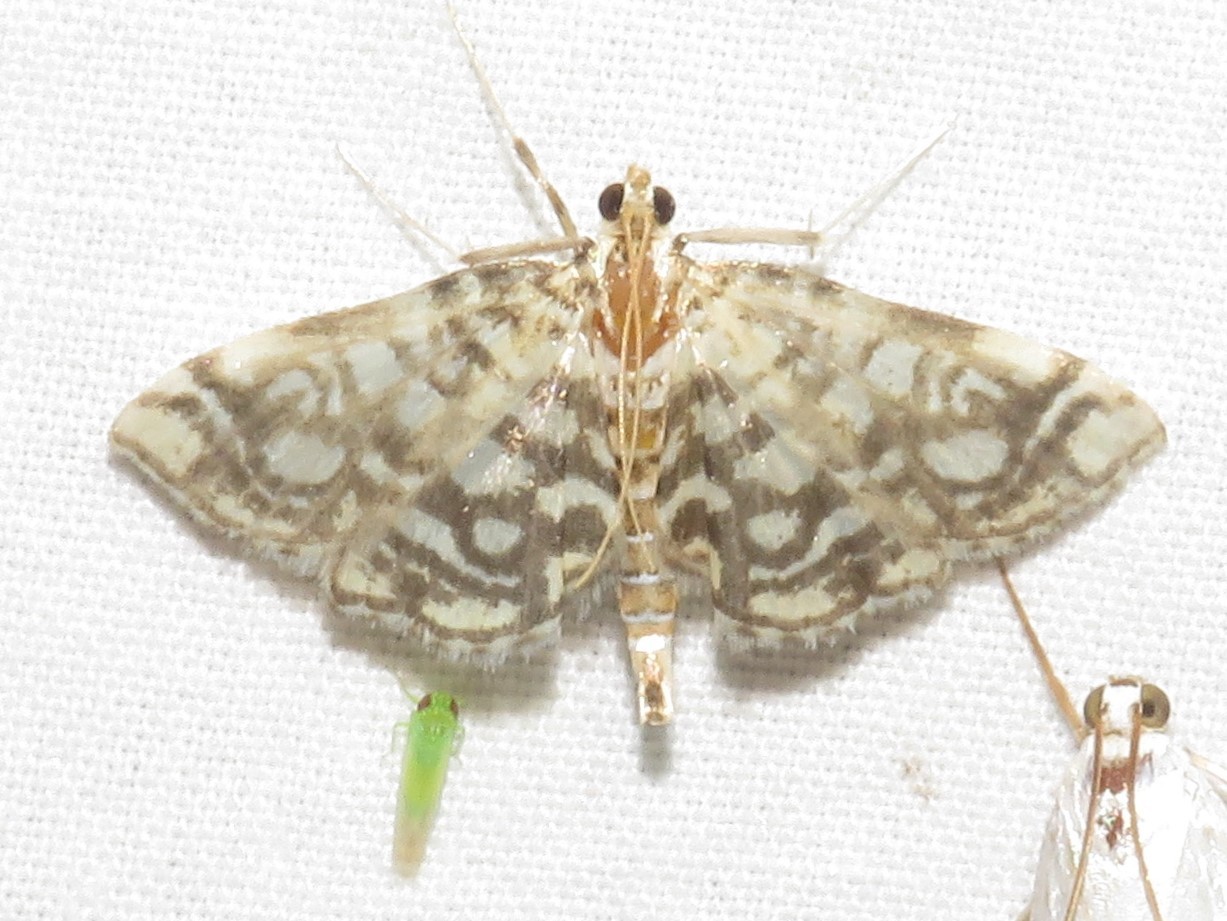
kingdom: Animalia
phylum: Arthropoda
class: Insecta
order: Lepidoptera
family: Crambidae
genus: Lygropia
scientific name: Lygropia rivulalis
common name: Bog lygropia moth
